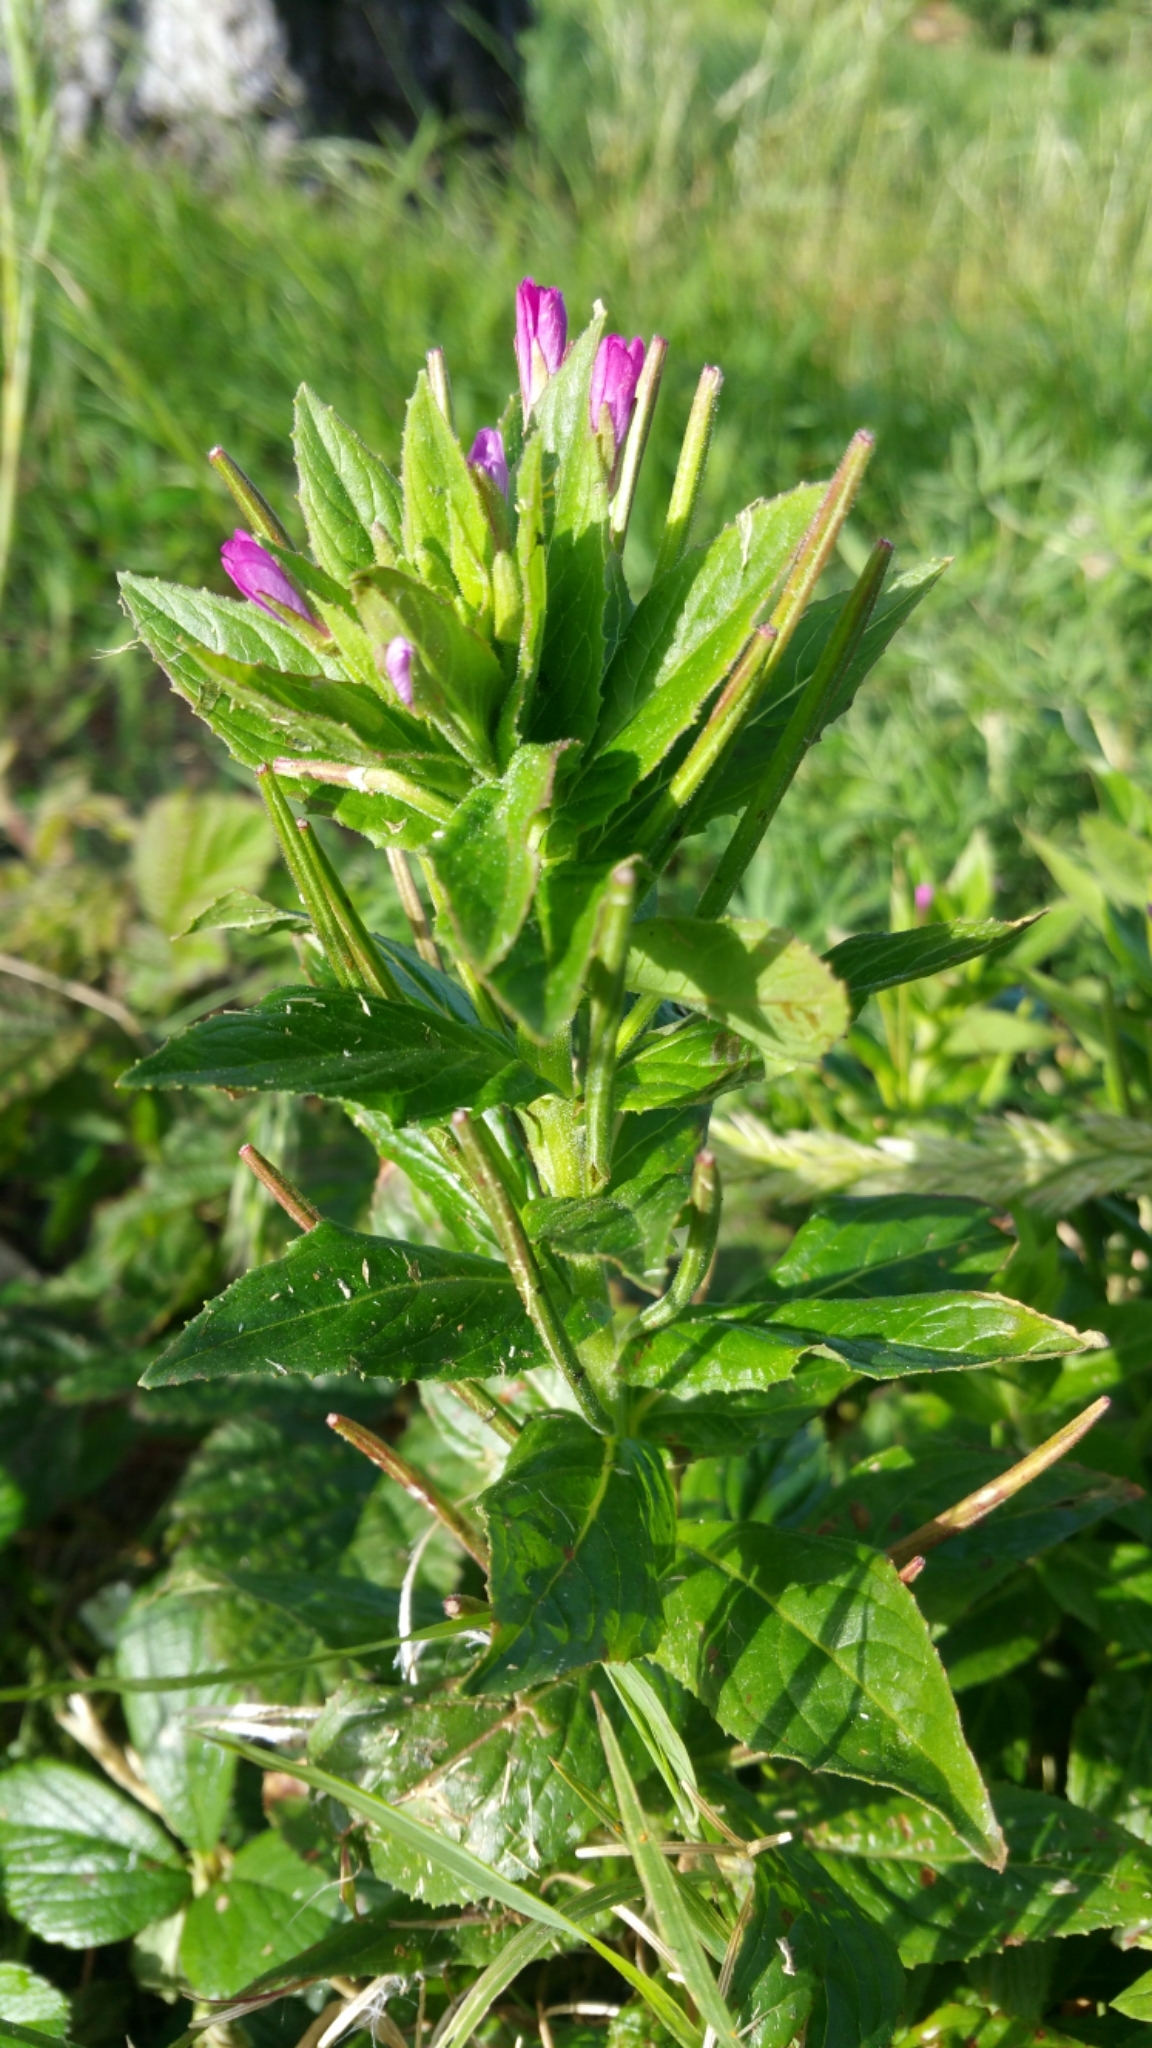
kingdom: Plantae
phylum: Tracheophyta
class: Magnoliopsida
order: Myrtales
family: Onagraceae
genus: Epilobium
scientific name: Epilobium ciliatum
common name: American willowherb
